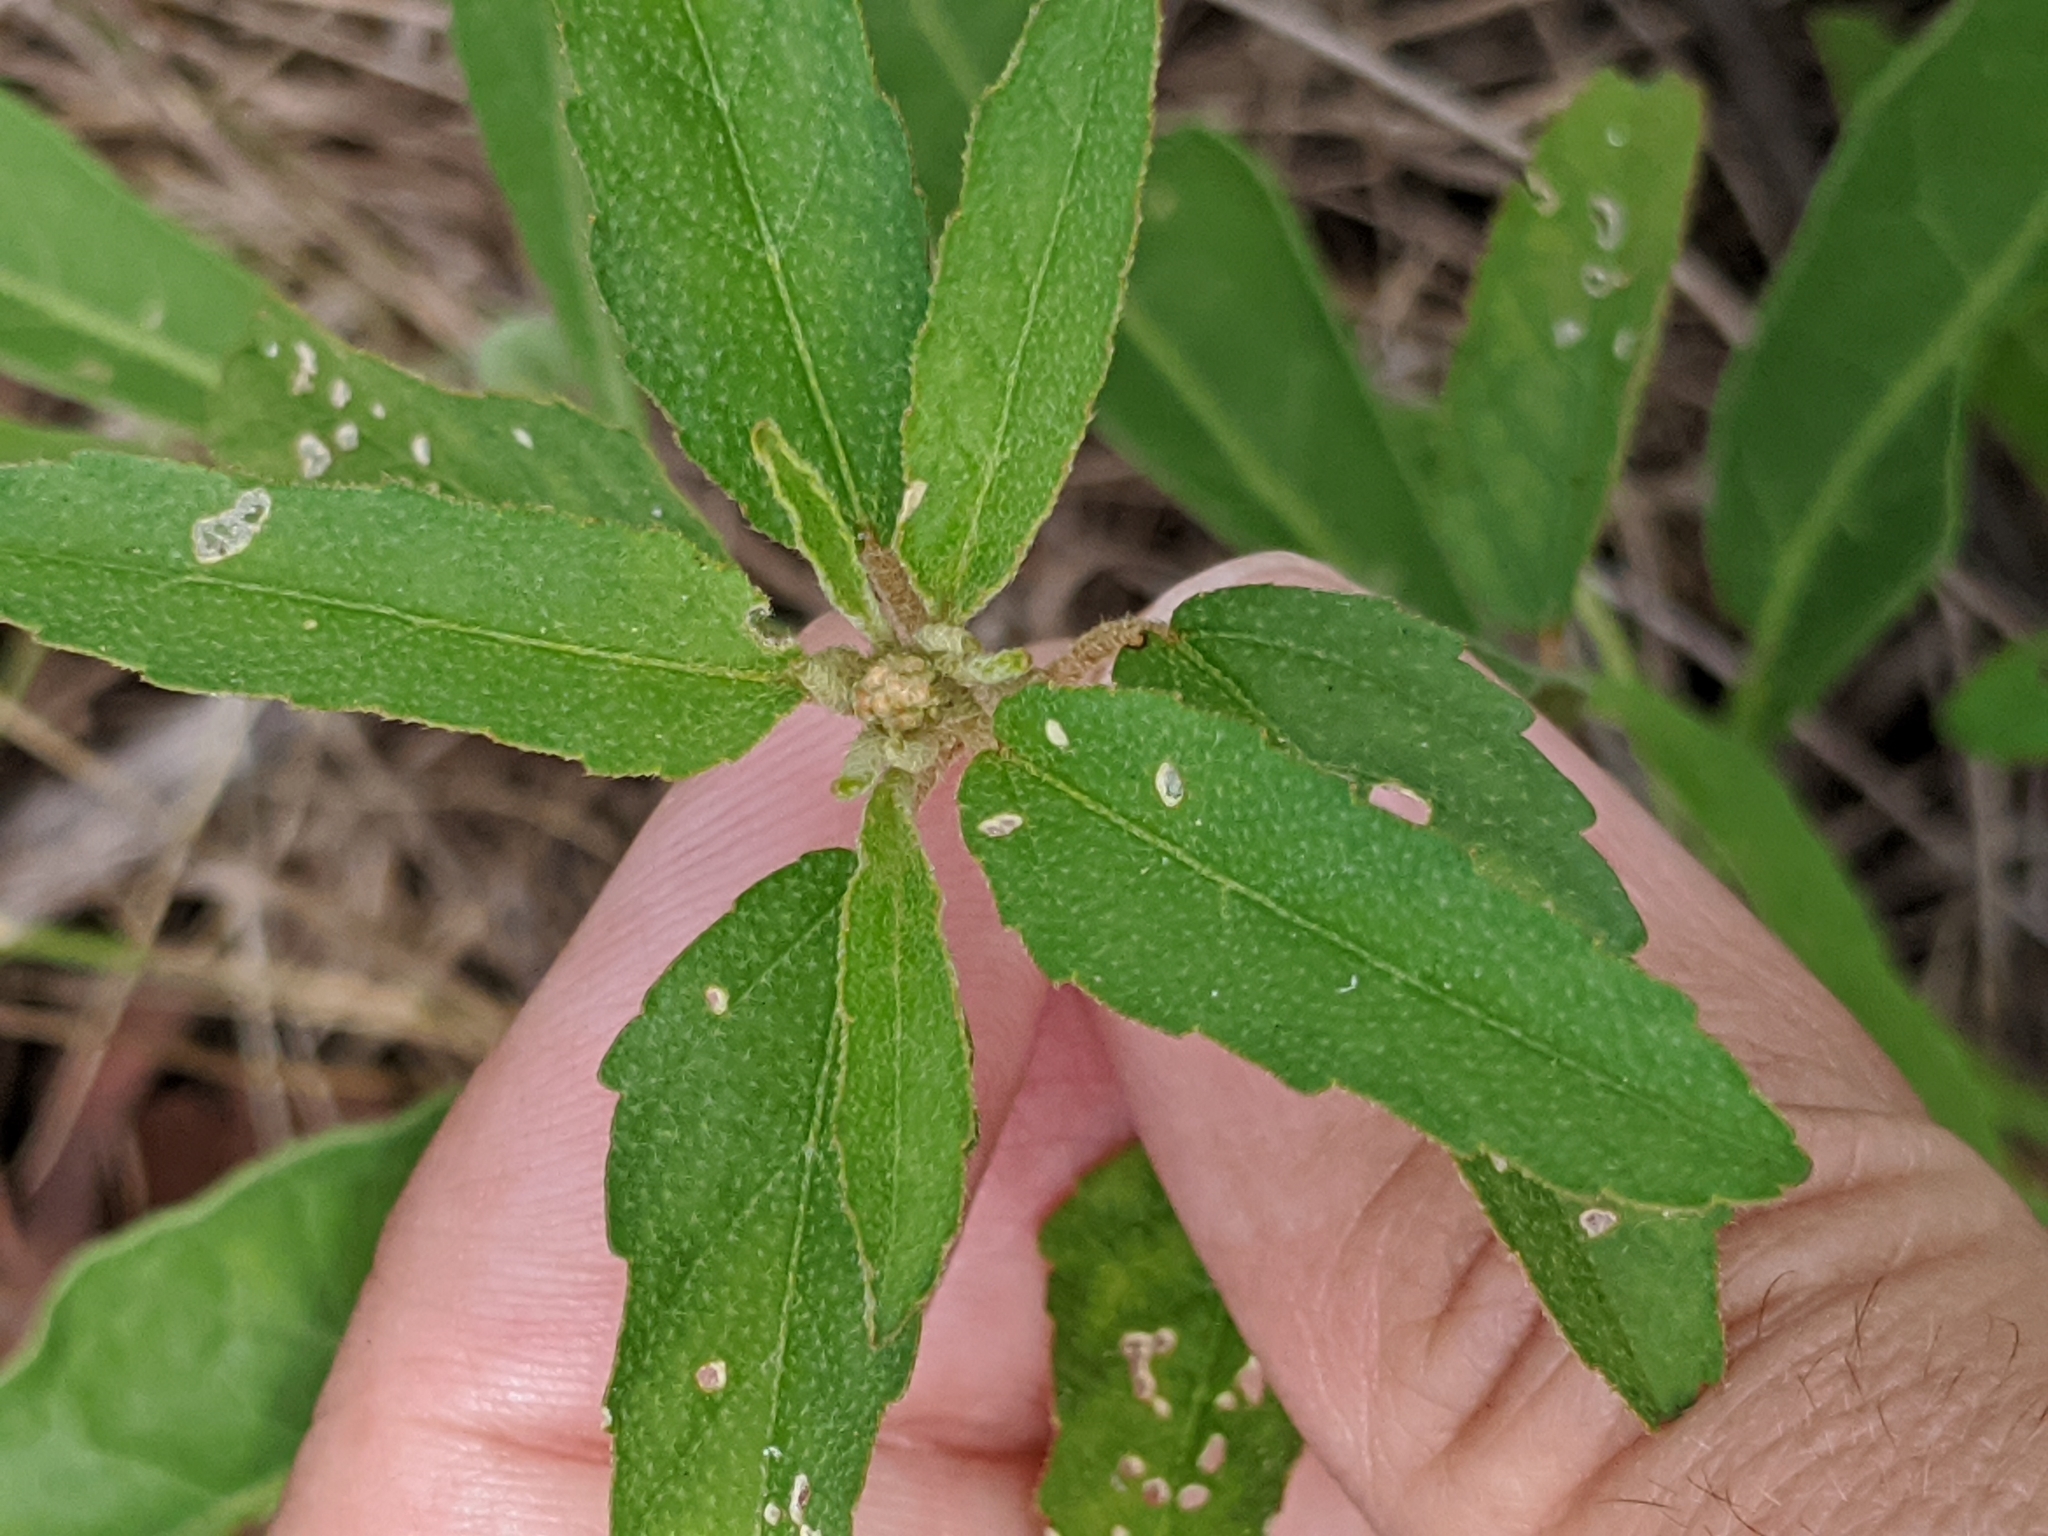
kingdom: Plantae
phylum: Tracheophyta
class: Magnoliopsida
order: Malpighiales
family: Euphorbiaceae
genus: Croton
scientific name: Croton glandulosus
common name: Tropic croton
